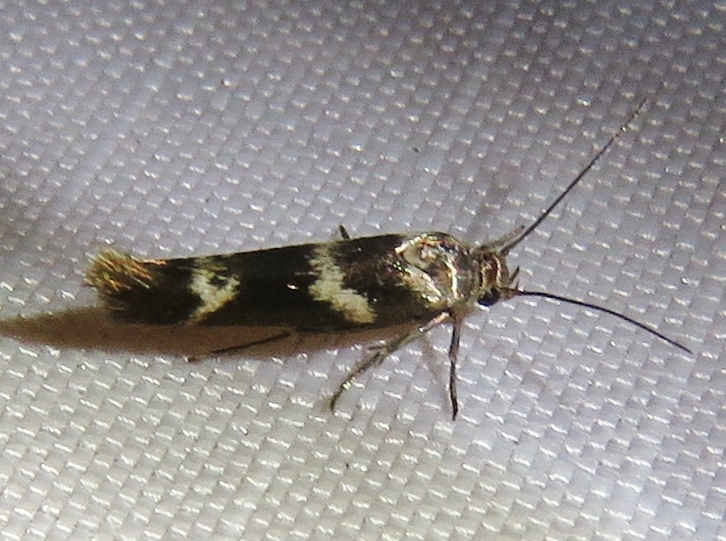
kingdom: Animalia
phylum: Arthropoda
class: Insecta
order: Lepidoptera
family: Scythrididae
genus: Scythris
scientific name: Scythris trivinctella
